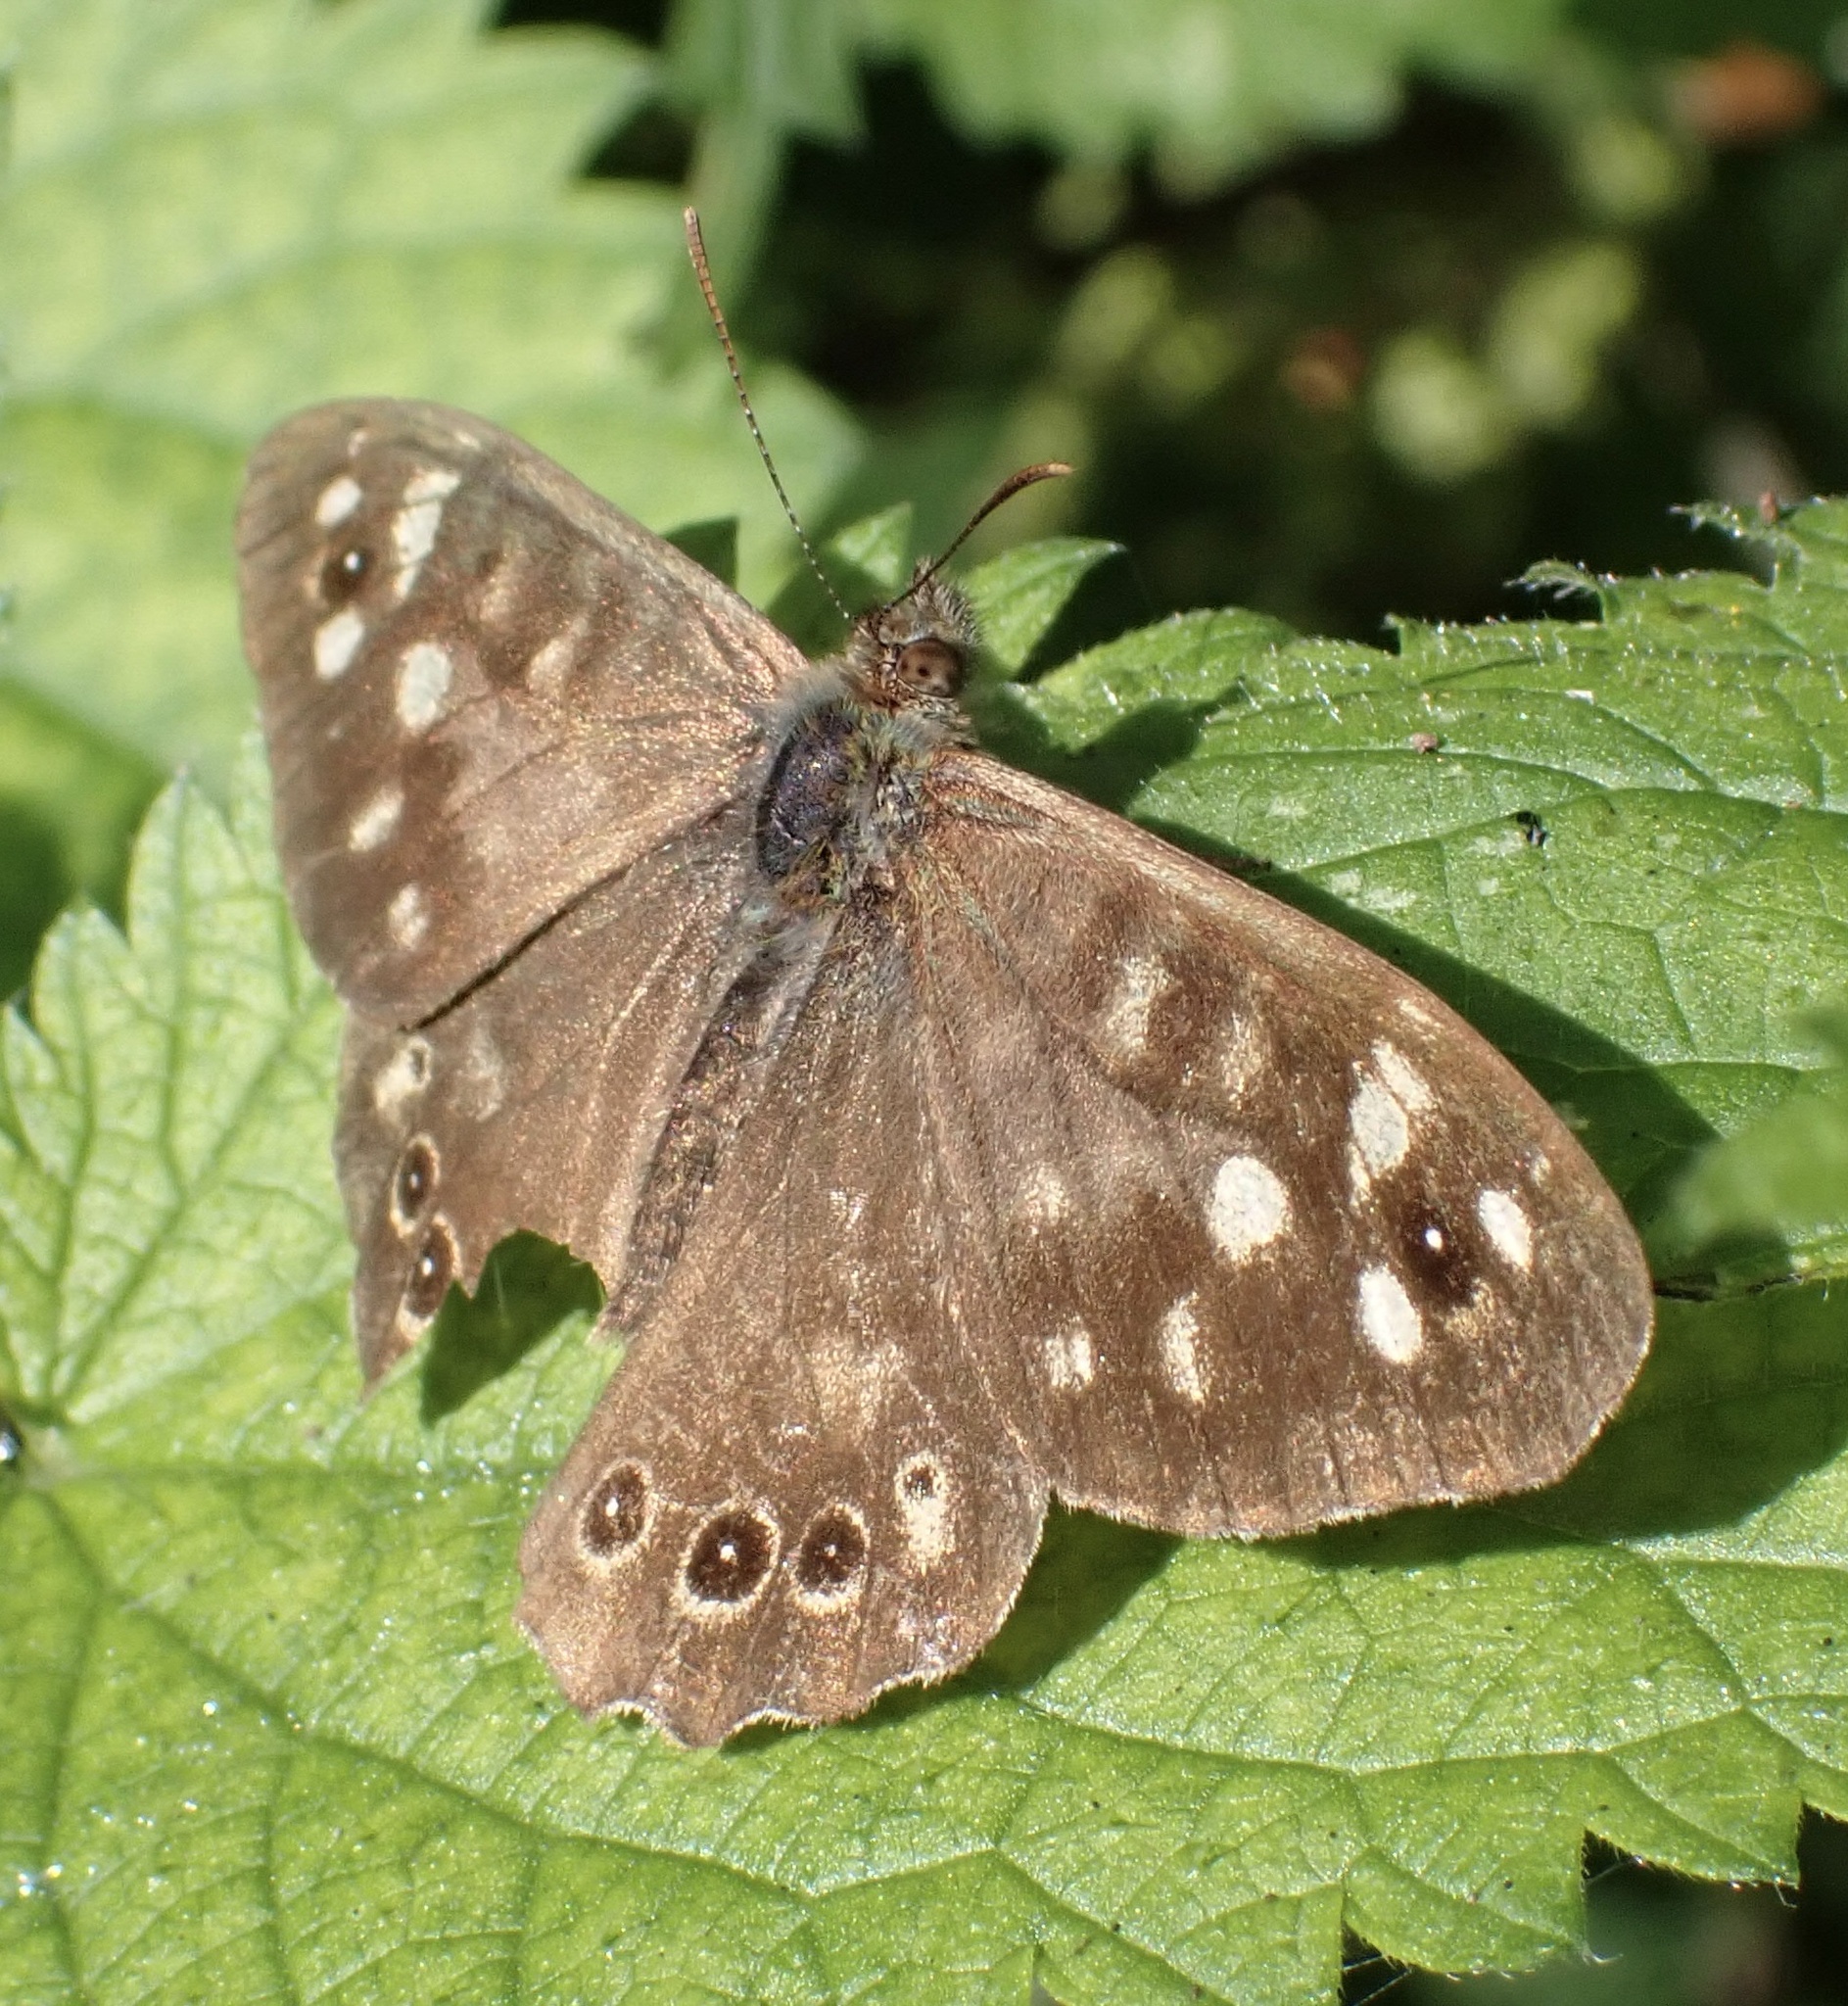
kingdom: Animalia
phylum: Arthropoda
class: Insecta
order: Lepidoptera
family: Nymphalidae
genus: Pararge
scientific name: Pararge aegeria
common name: Speckled wood
